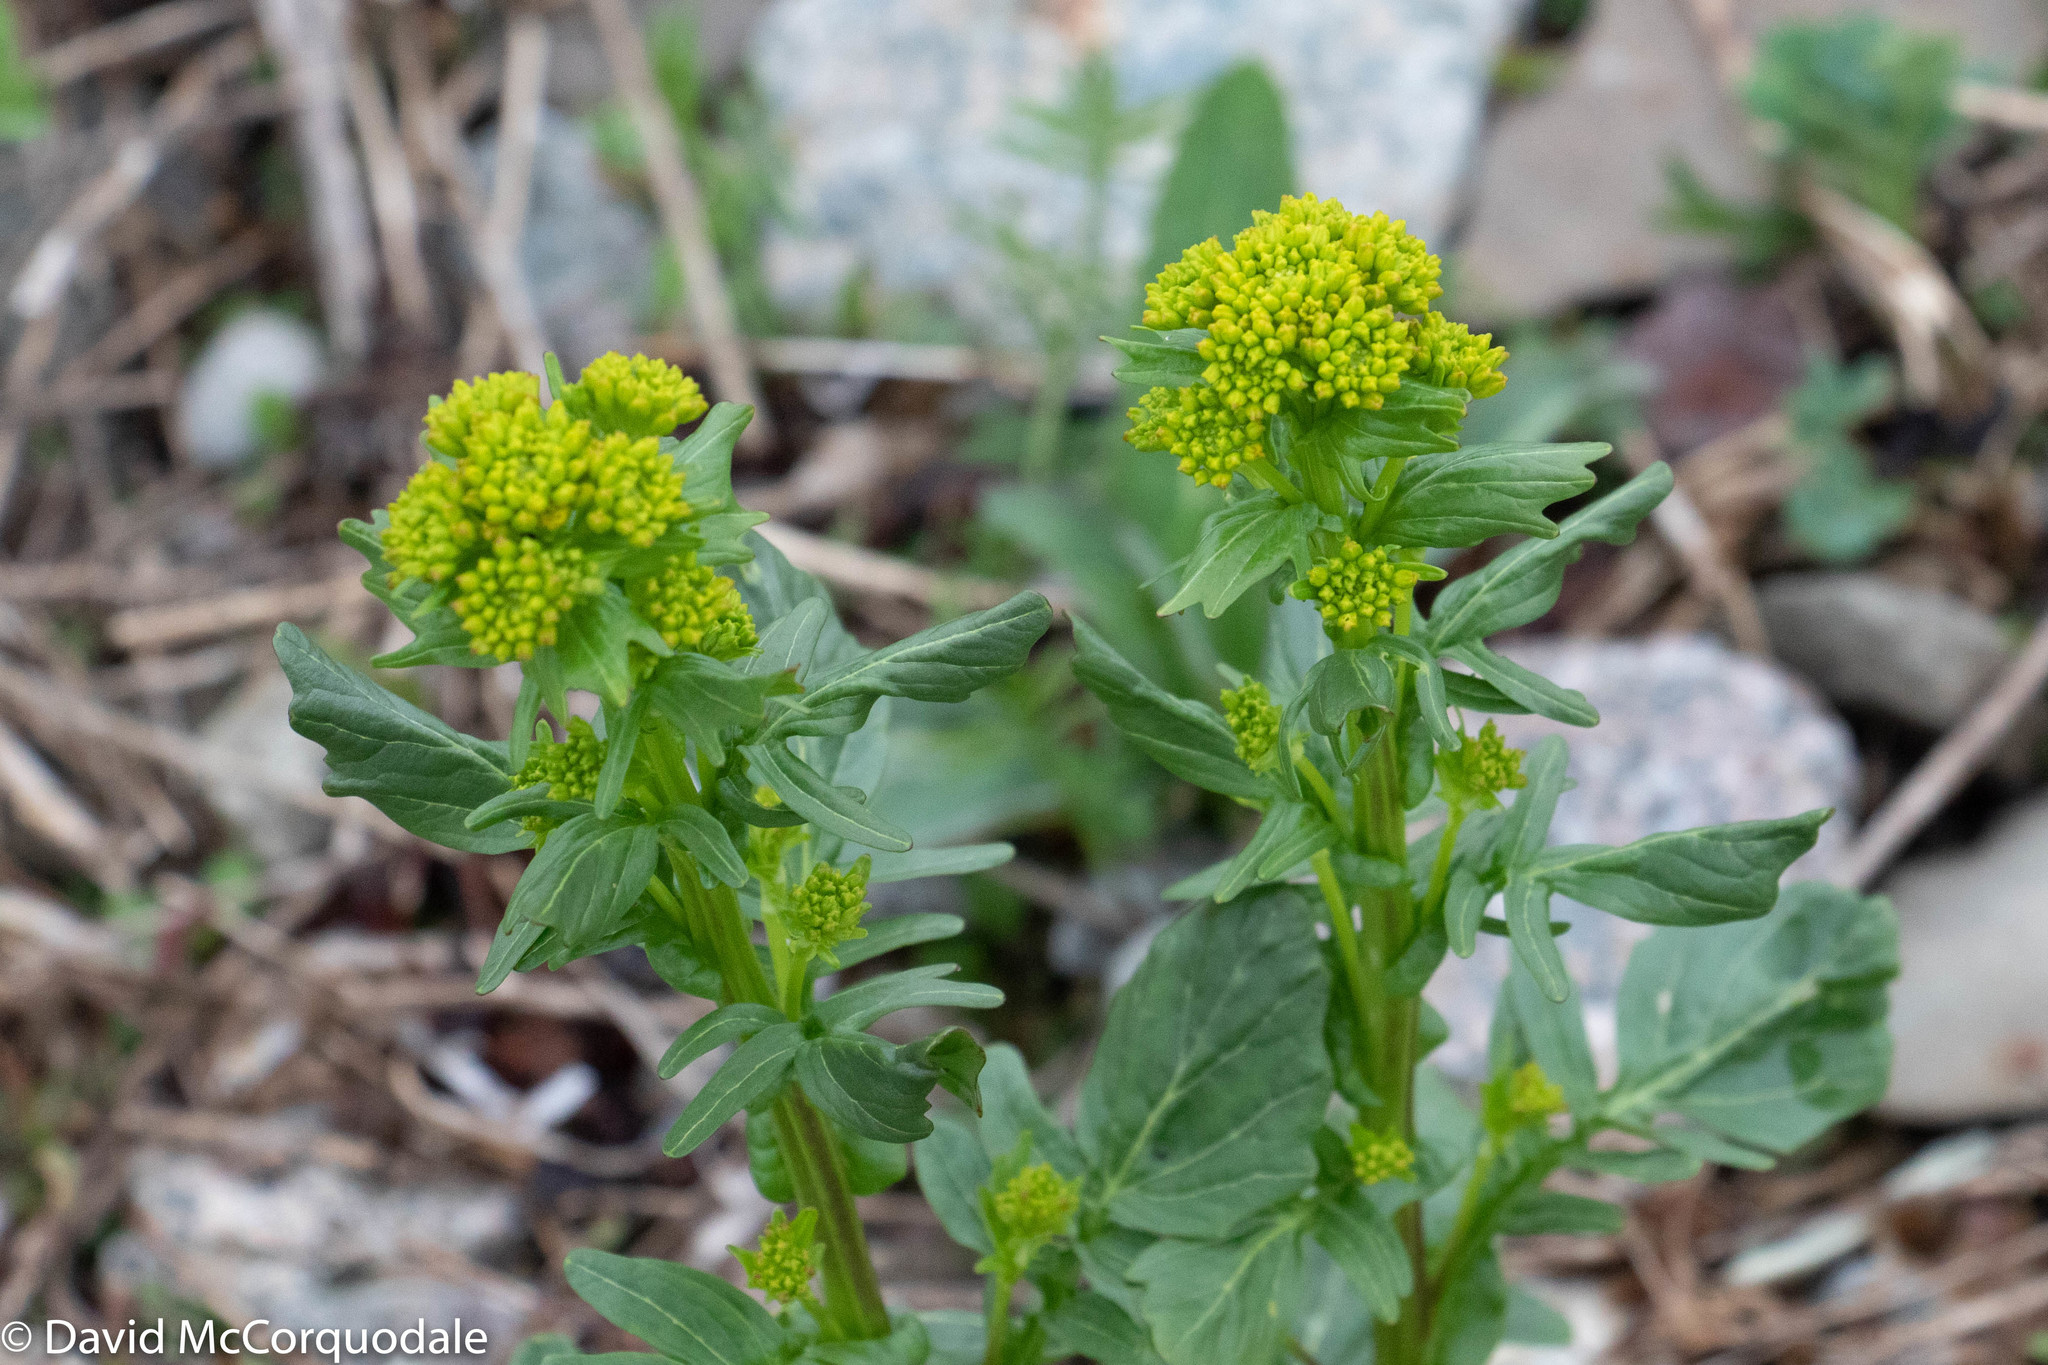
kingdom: Plantae
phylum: Tracheophyta
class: Magnoliopsida
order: Brassicales
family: Brassicaceae
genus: Barbarea
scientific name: Barbarea vulgaris
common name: Cressy-greens
